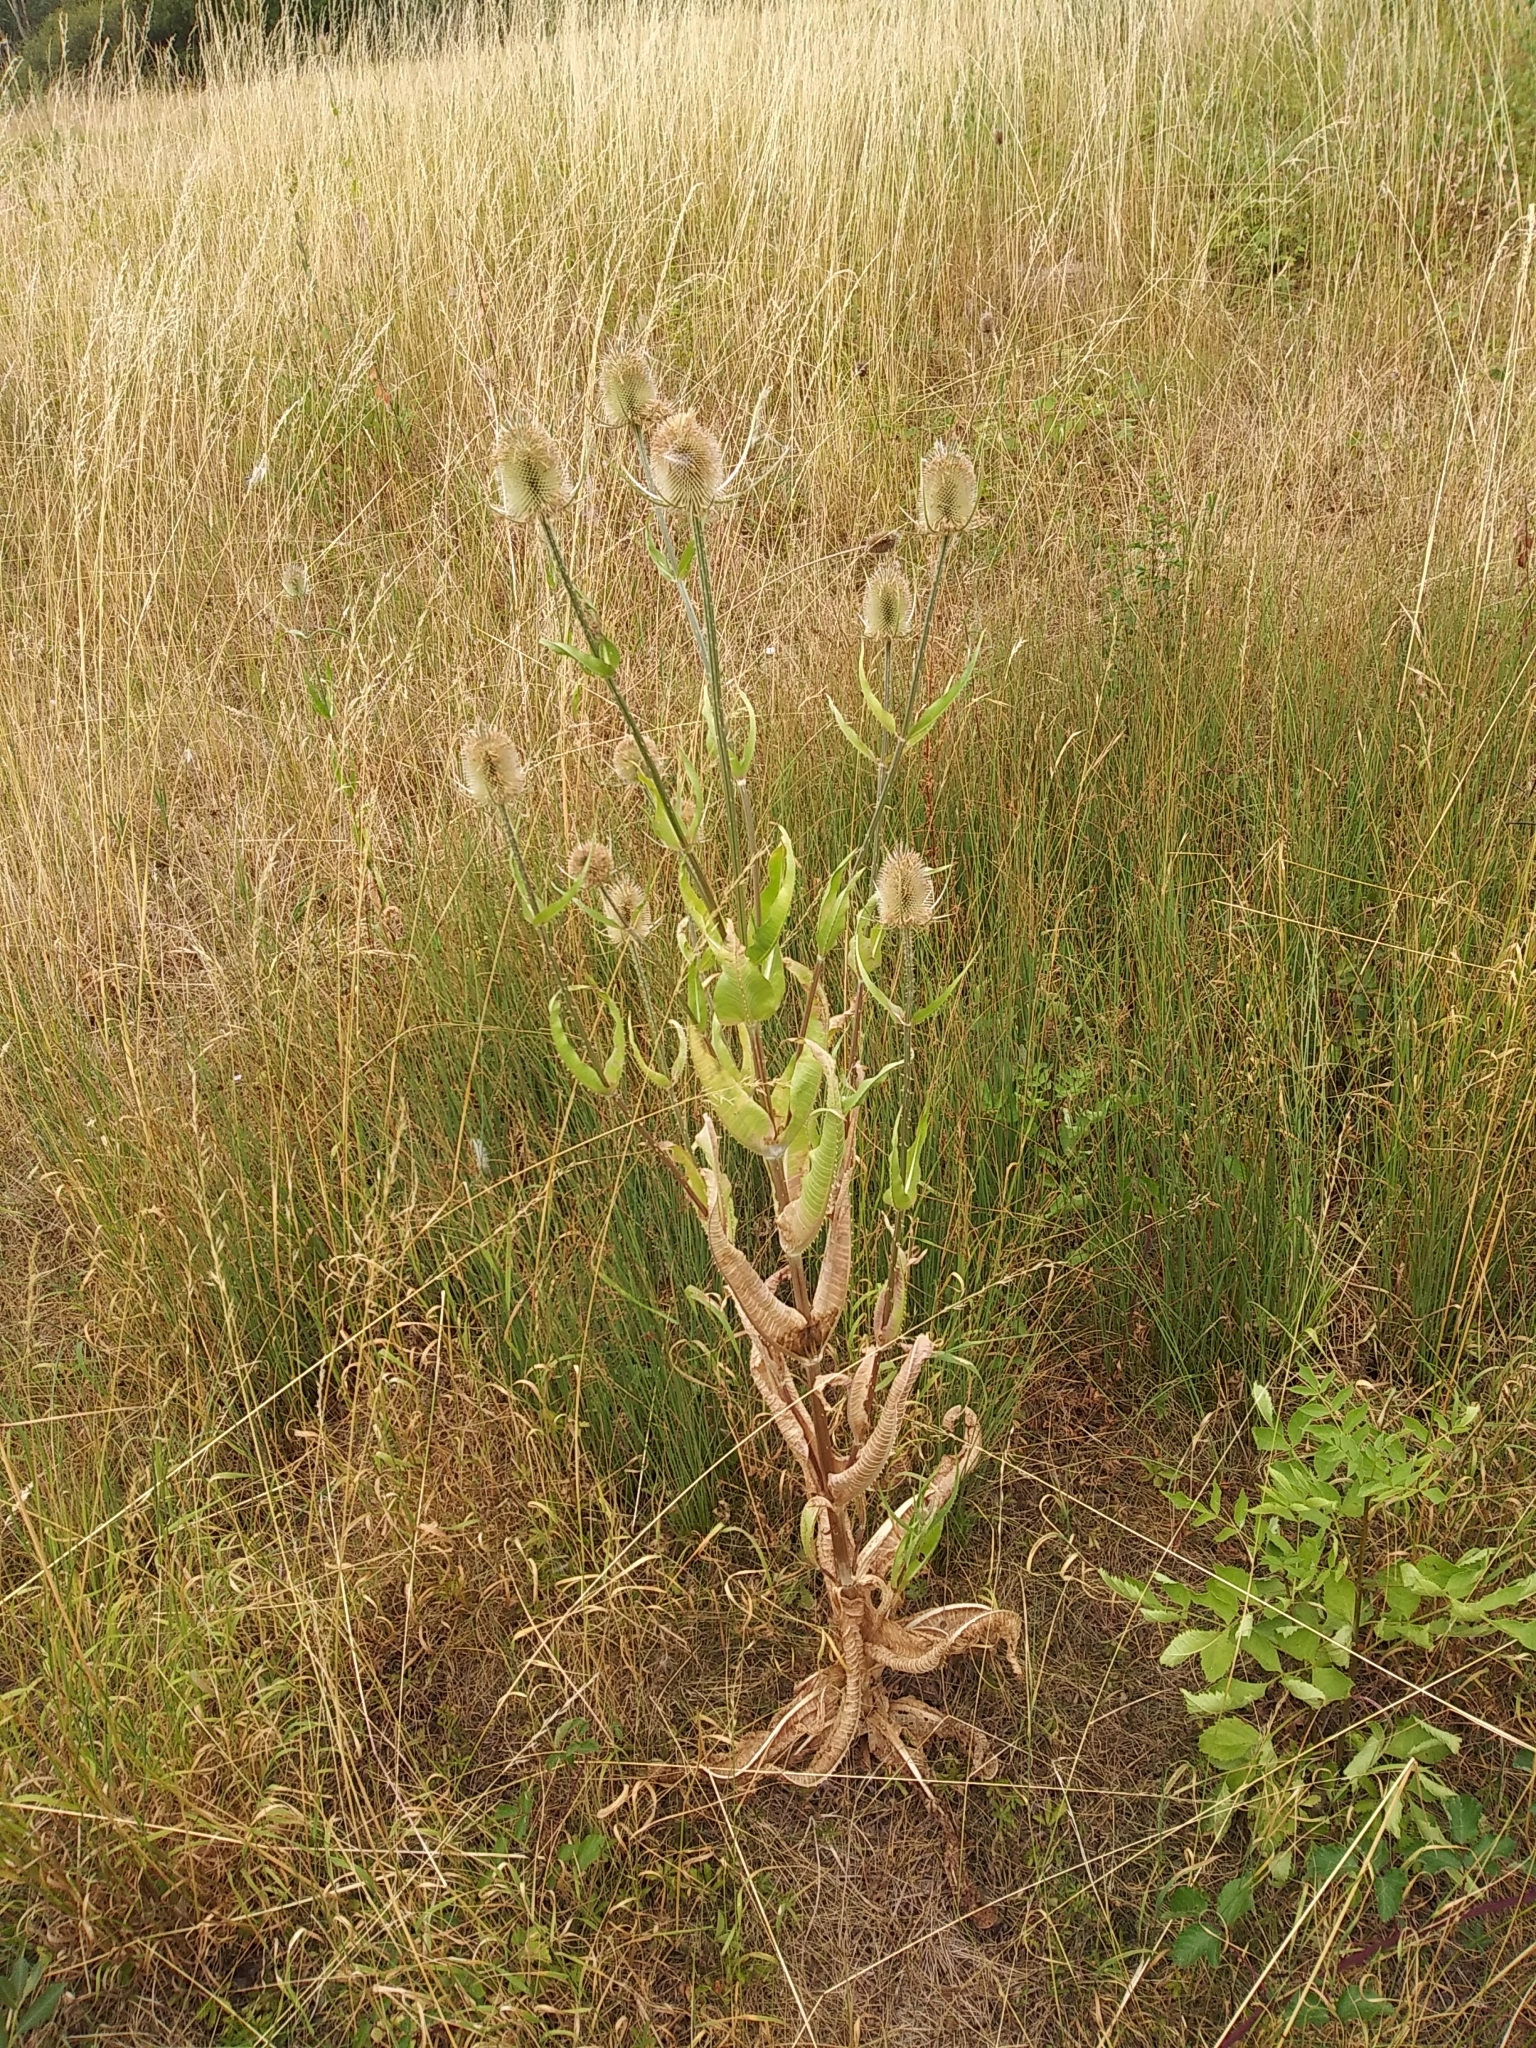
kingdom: Plantae
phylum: Tracheophyta
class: Magnoliopsida
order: Dipsacales
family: Caprifoliaceae
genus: Dipsacus
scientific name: Dipsacus fullonum
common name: Teasel
